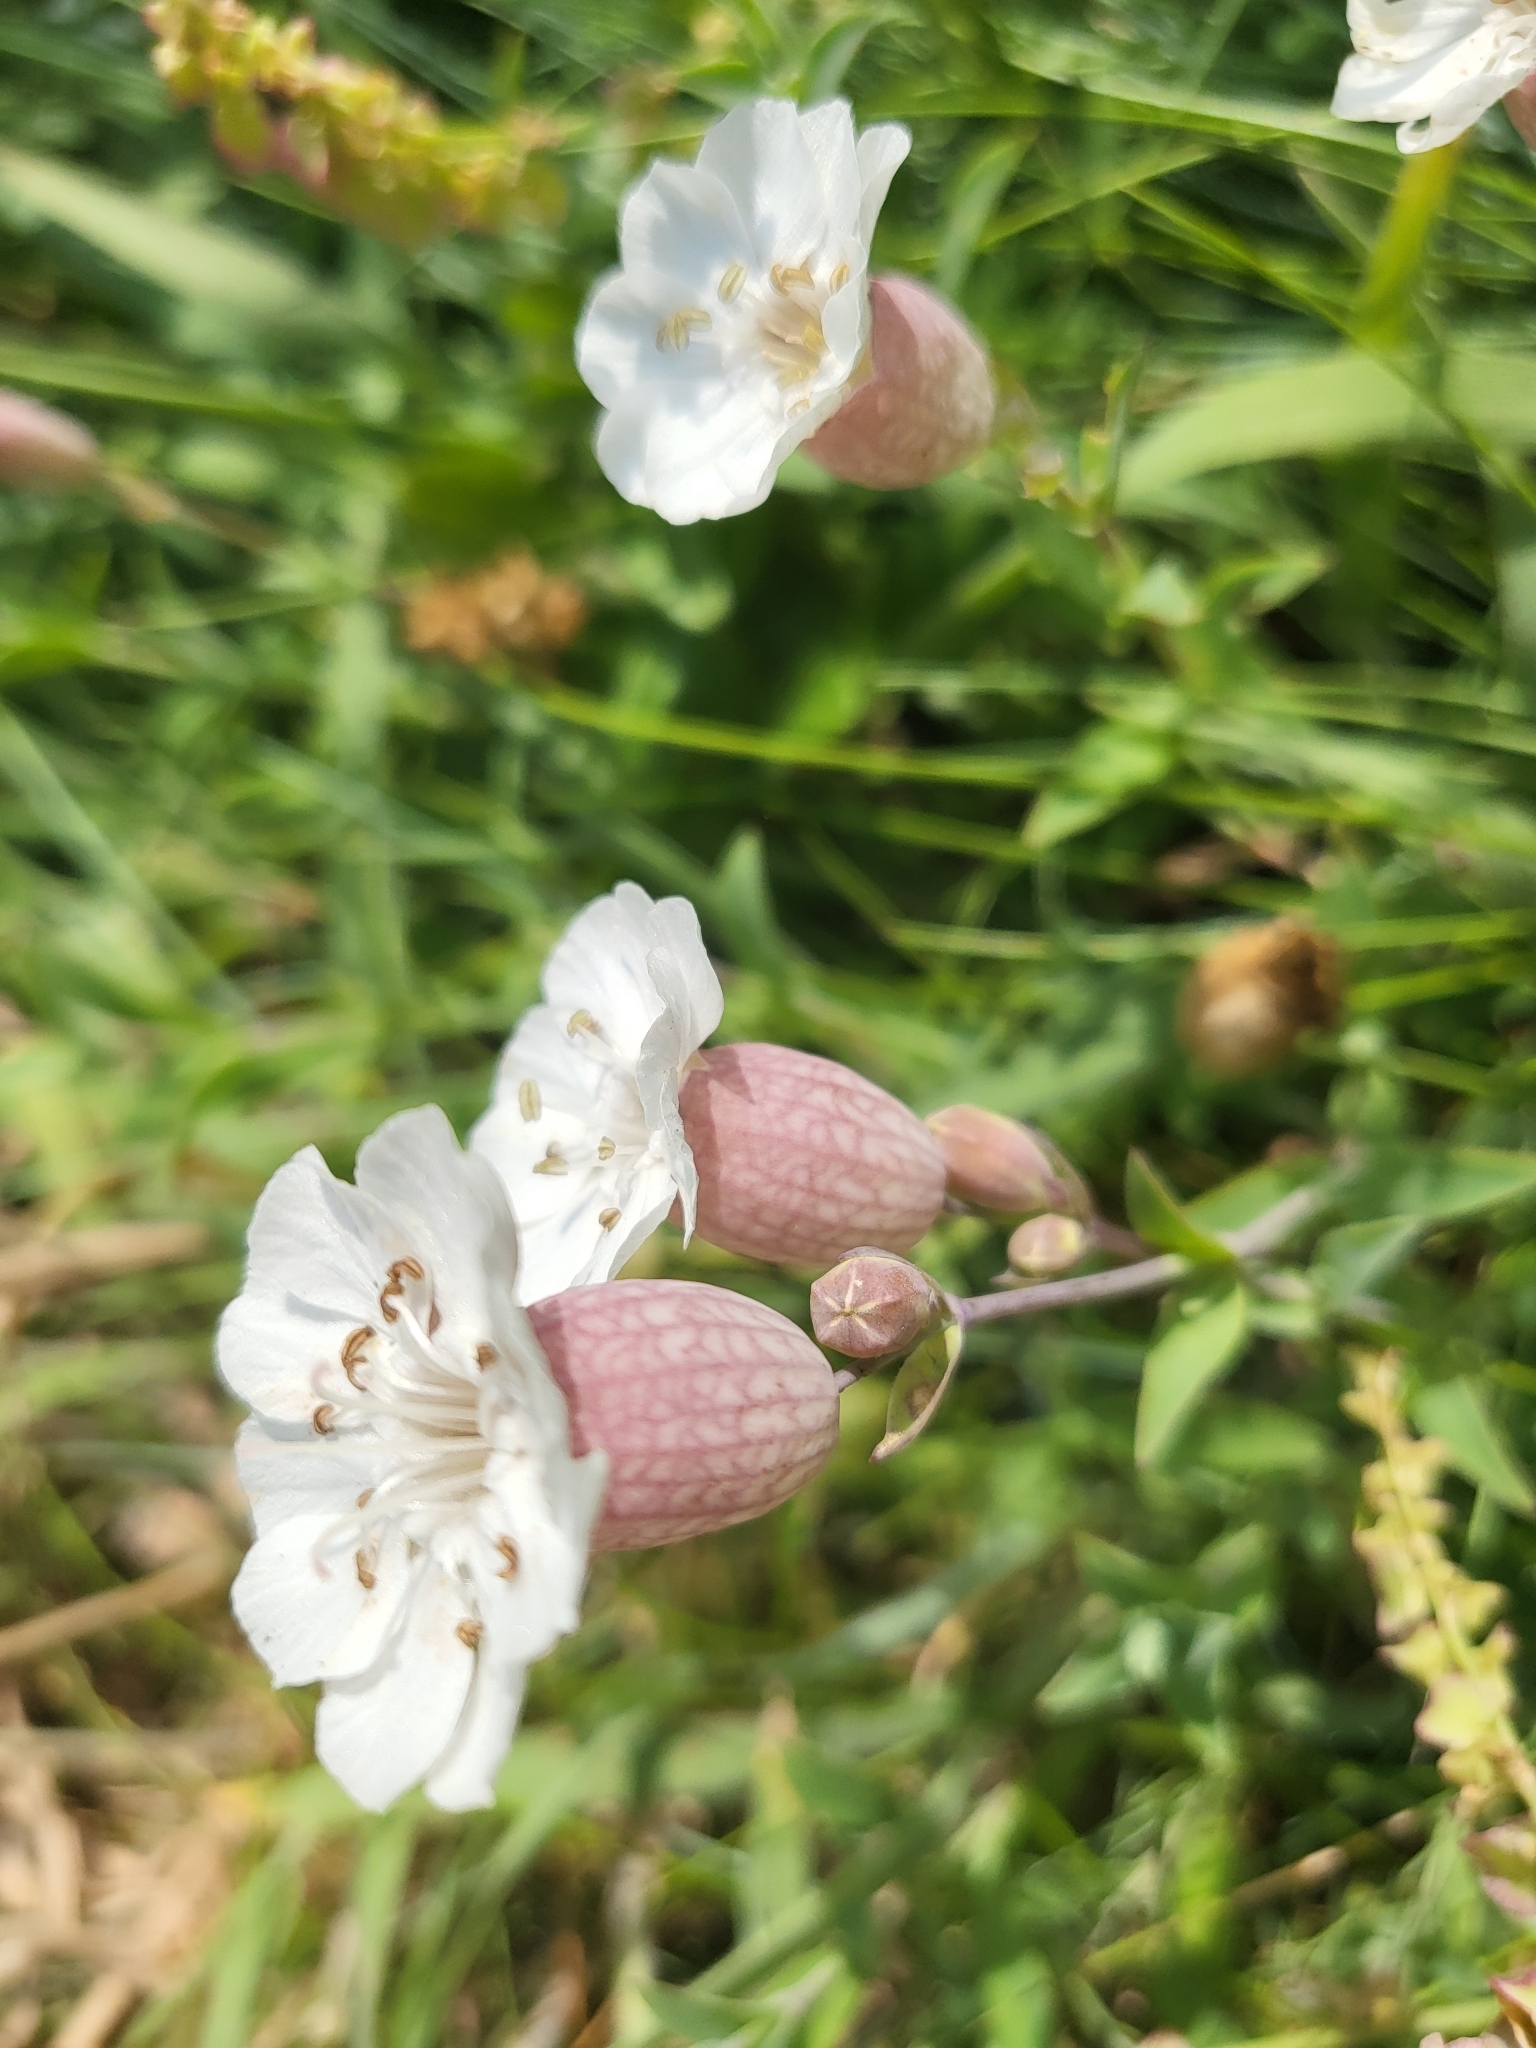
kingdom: Plantae
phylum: Tracheophyta
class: Magnoliopsida
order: Caryophyllales
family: Caryophyllaceae
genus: Silene
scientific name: Silene uniflora
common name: Sea campion
